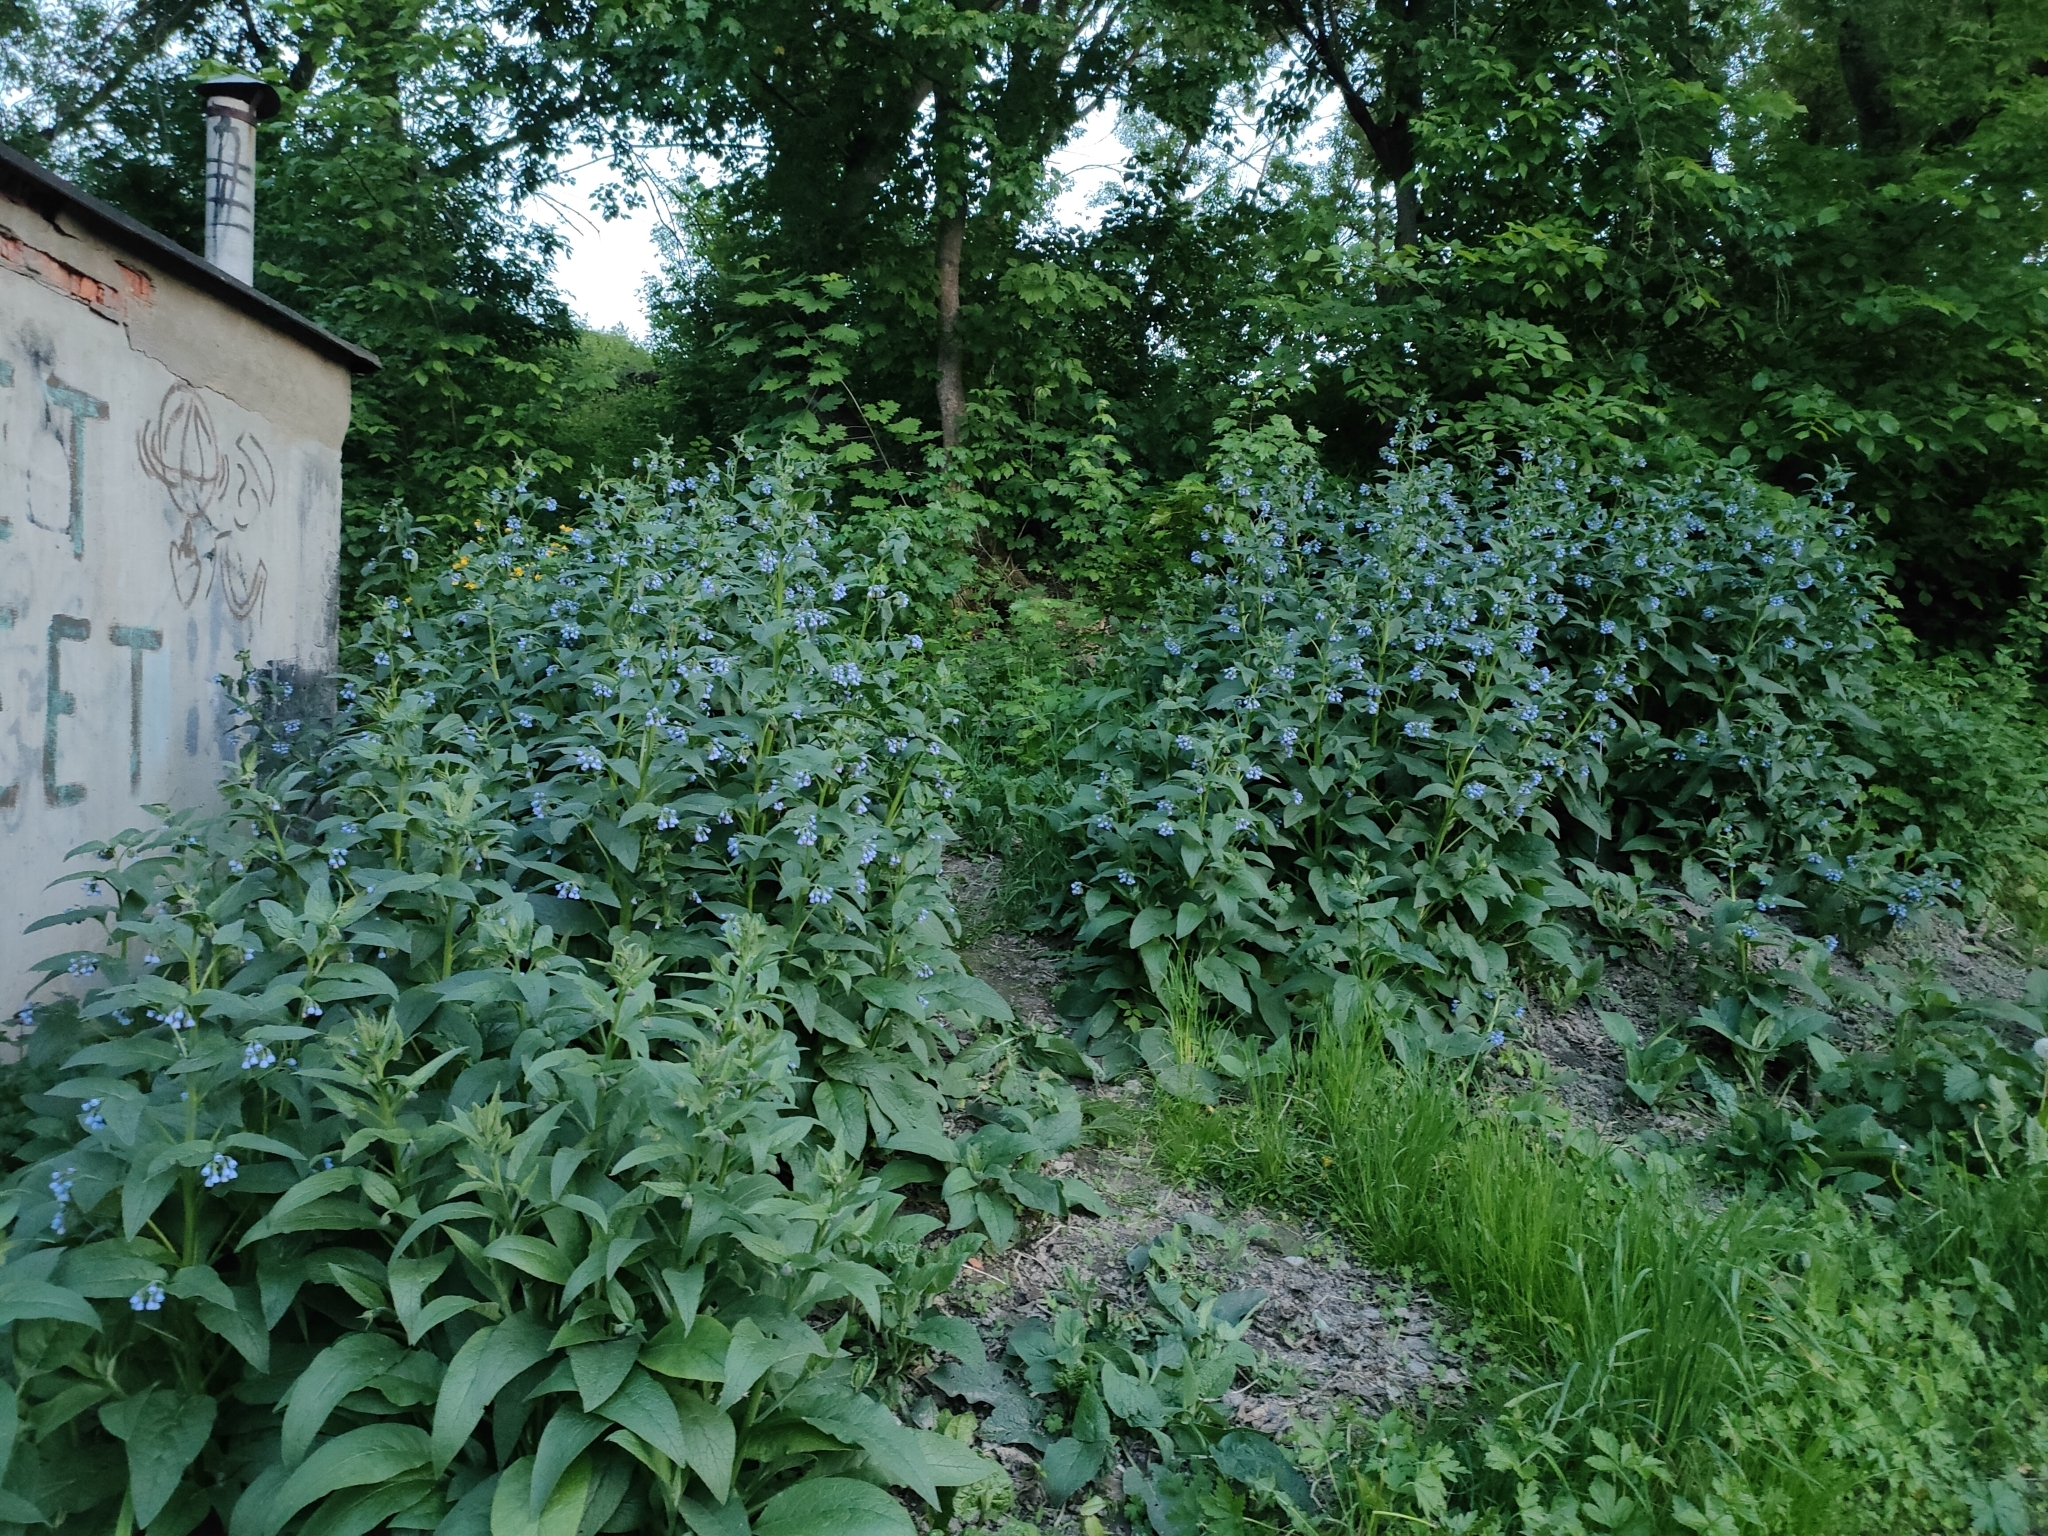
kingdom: Plantae
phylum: Tracheophyta
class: Magnoliopsida
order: Boraginales
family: Boraginaceae
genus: Symphytum
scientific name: Symphytum caucasicum
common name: Caucasian comfrey
